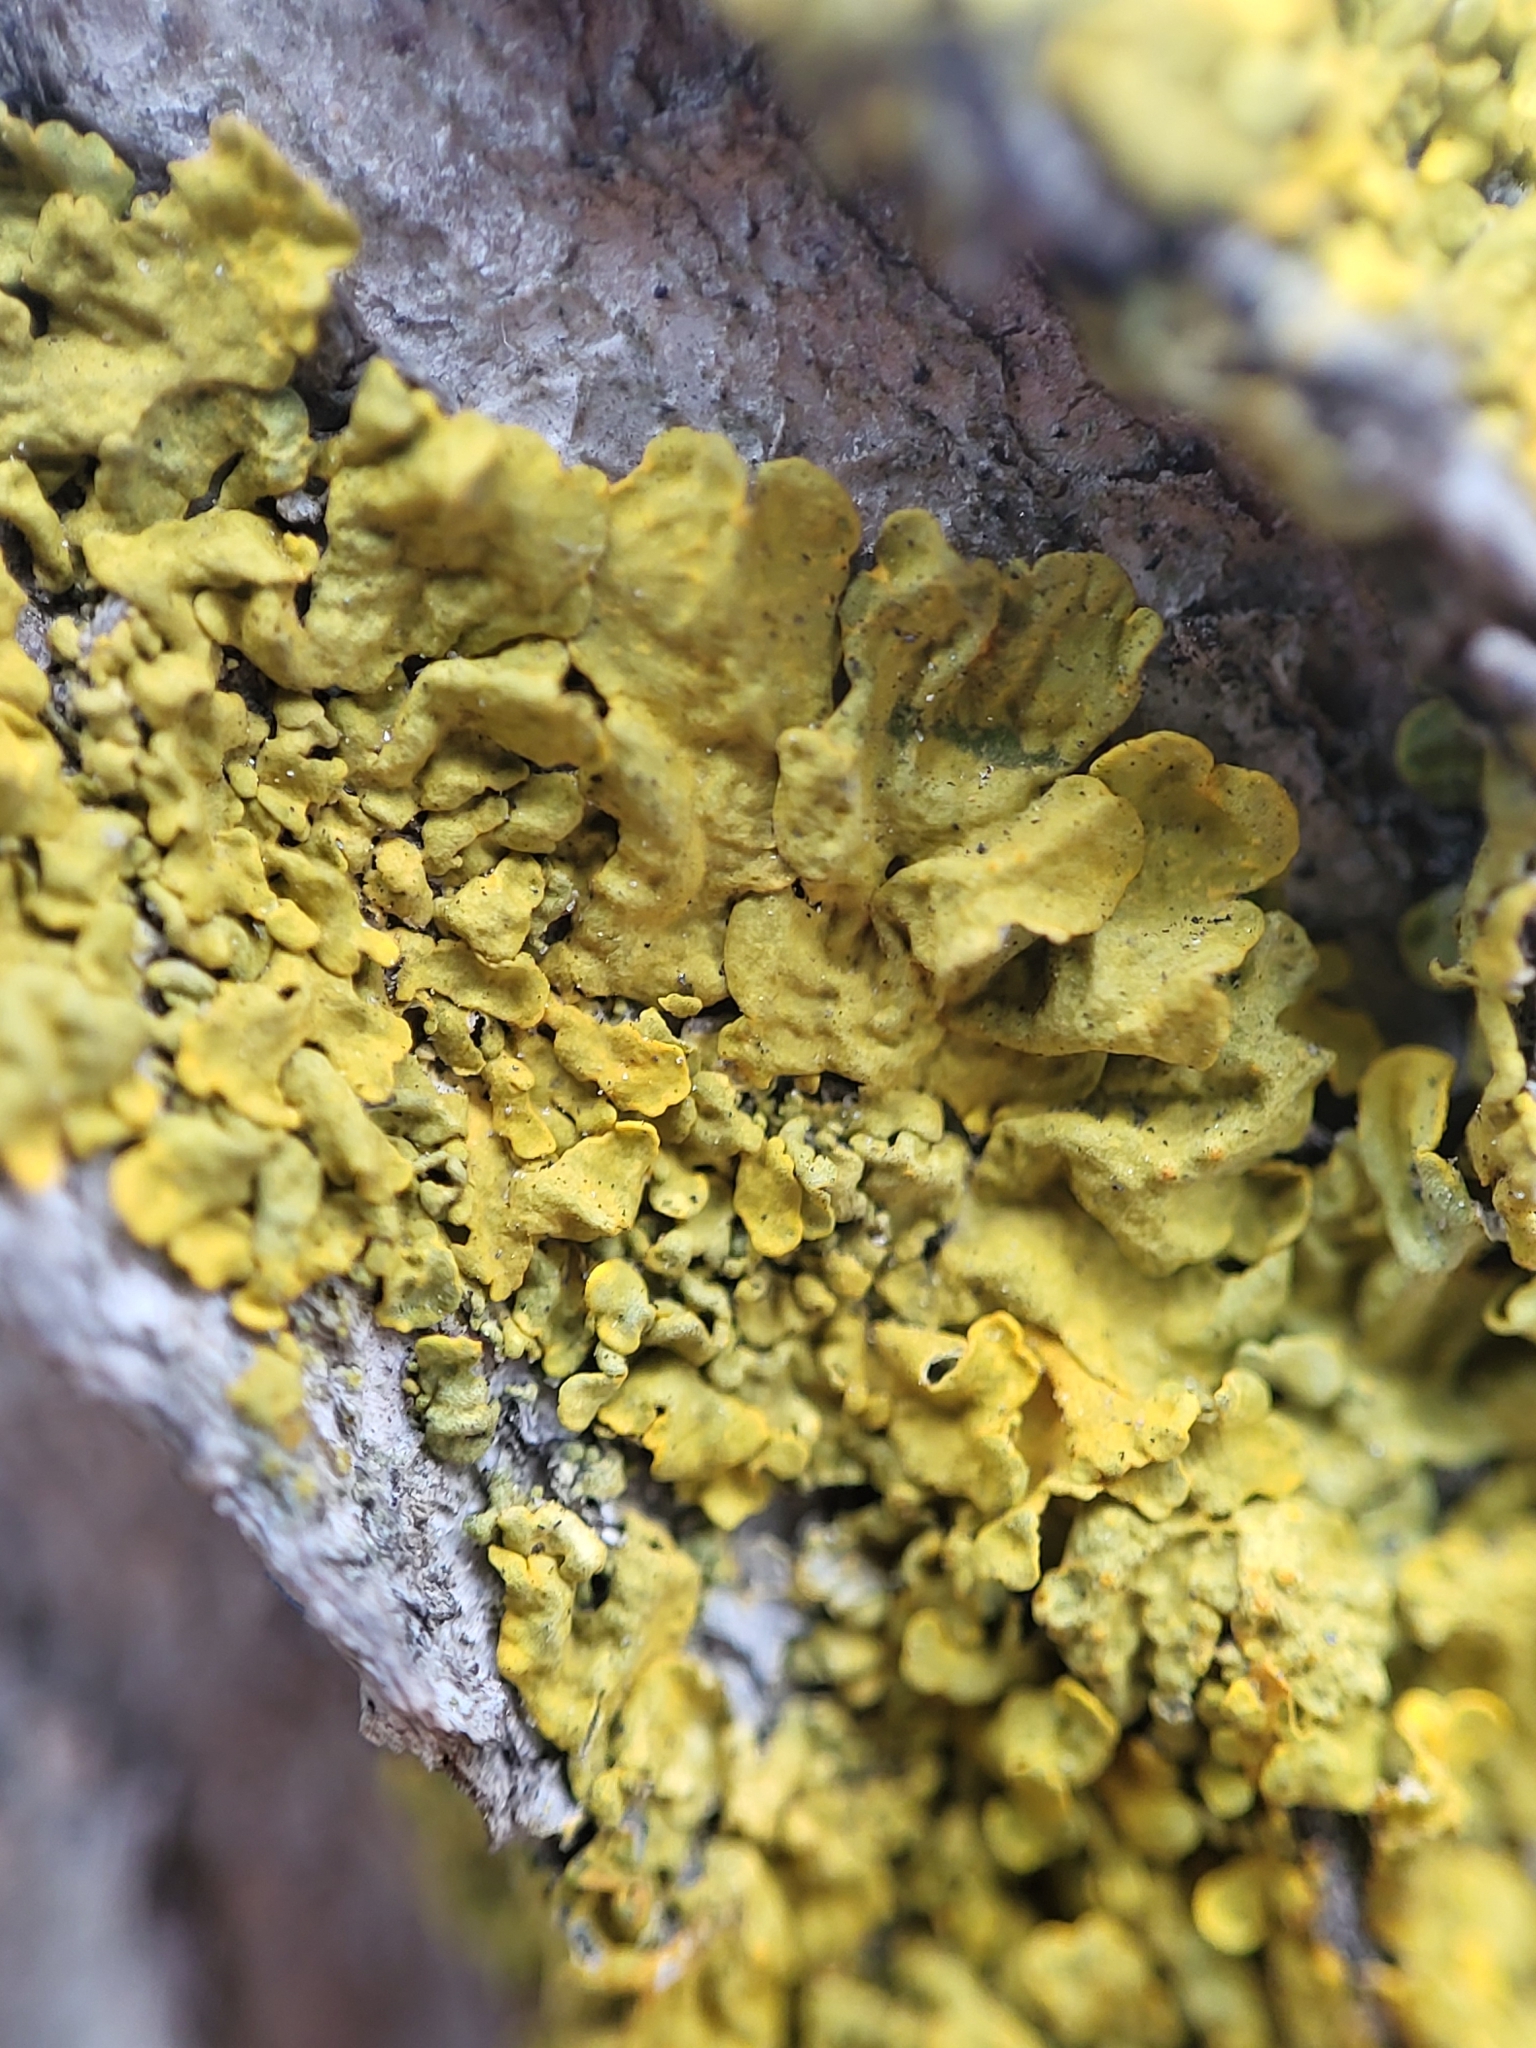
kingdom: Fungi
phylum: Ascomycota
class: Lecanoromycetes
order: Teloschistales
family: Teloschistaceae
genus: Xanthoria
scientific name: Xanthoria parietina
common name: Common orange lichen
